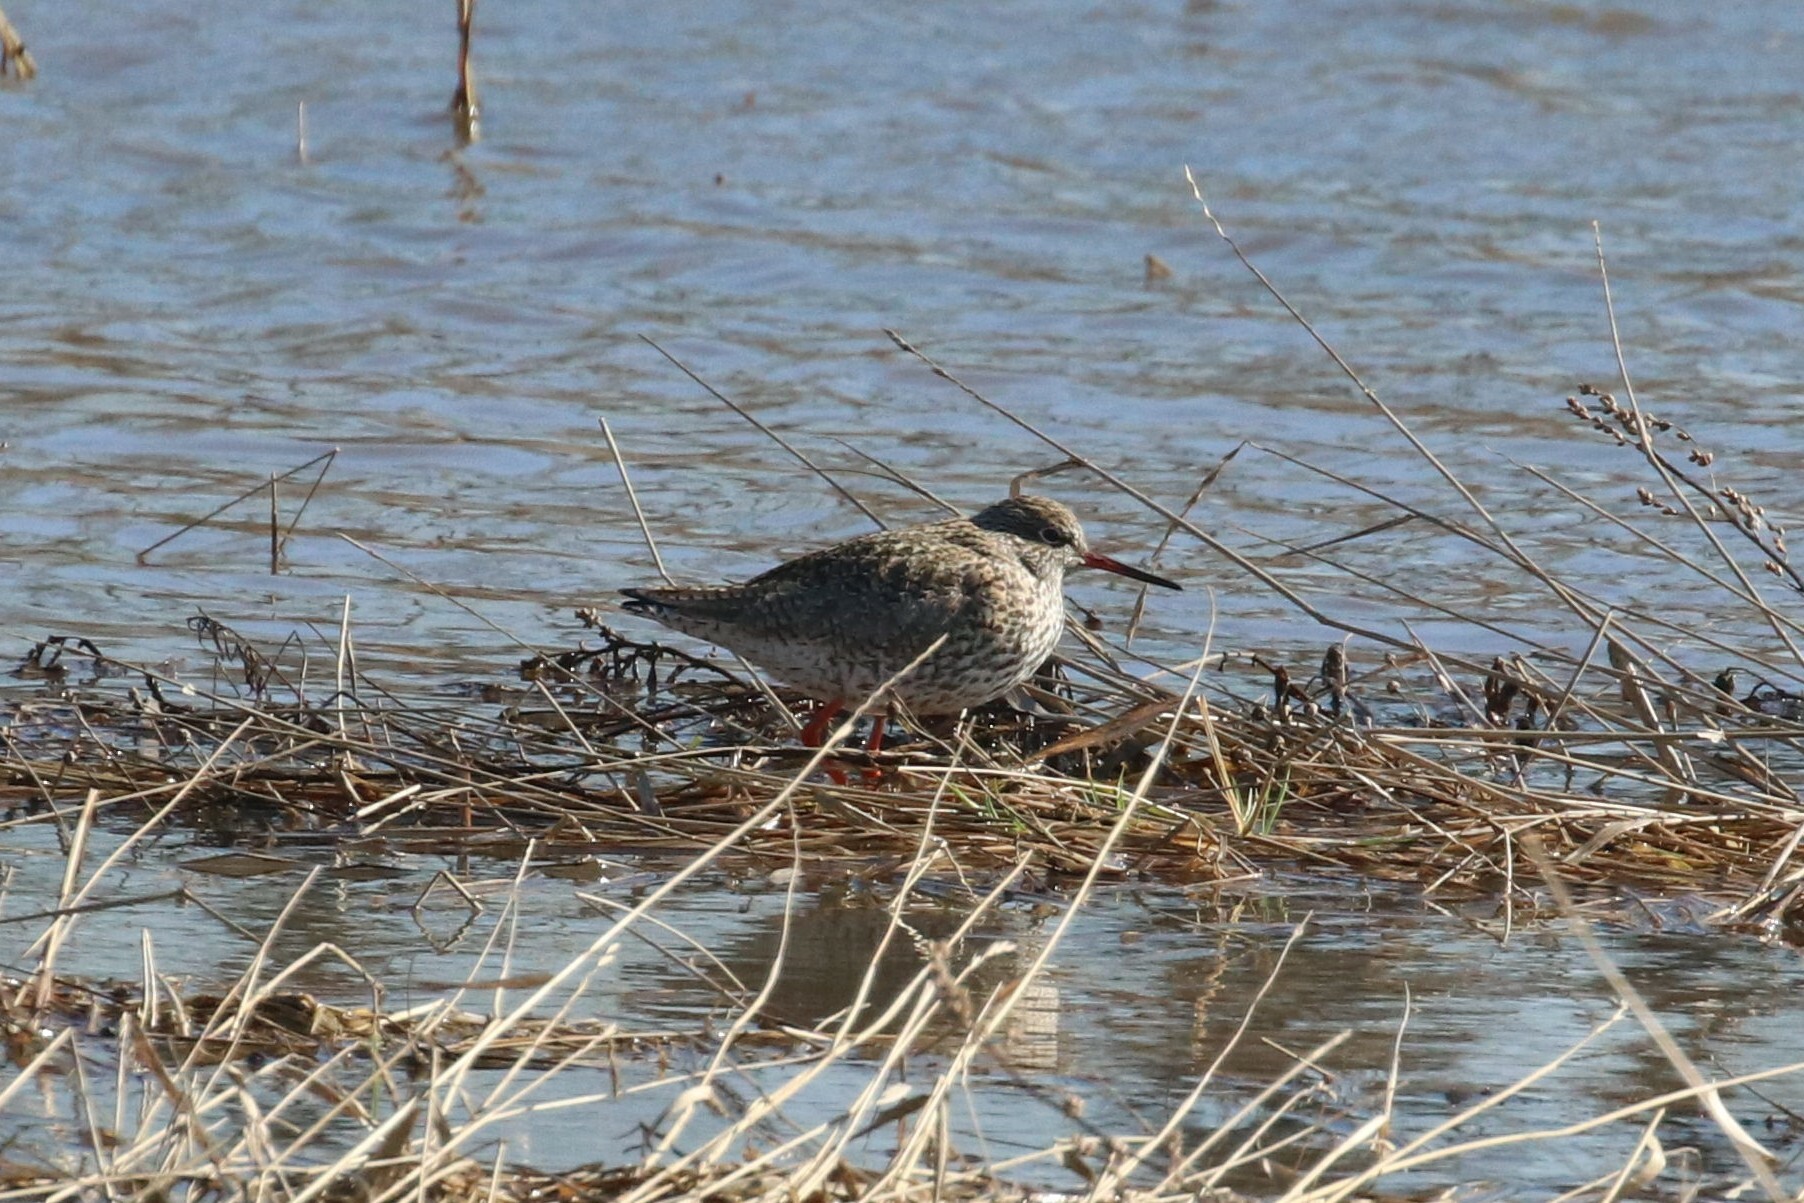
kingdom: Animalia
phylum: Chordata
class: Aves
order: Charadriiformes
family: Scolopacidae
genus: Tringa
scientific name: Tringa totanus
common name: Common redshank
